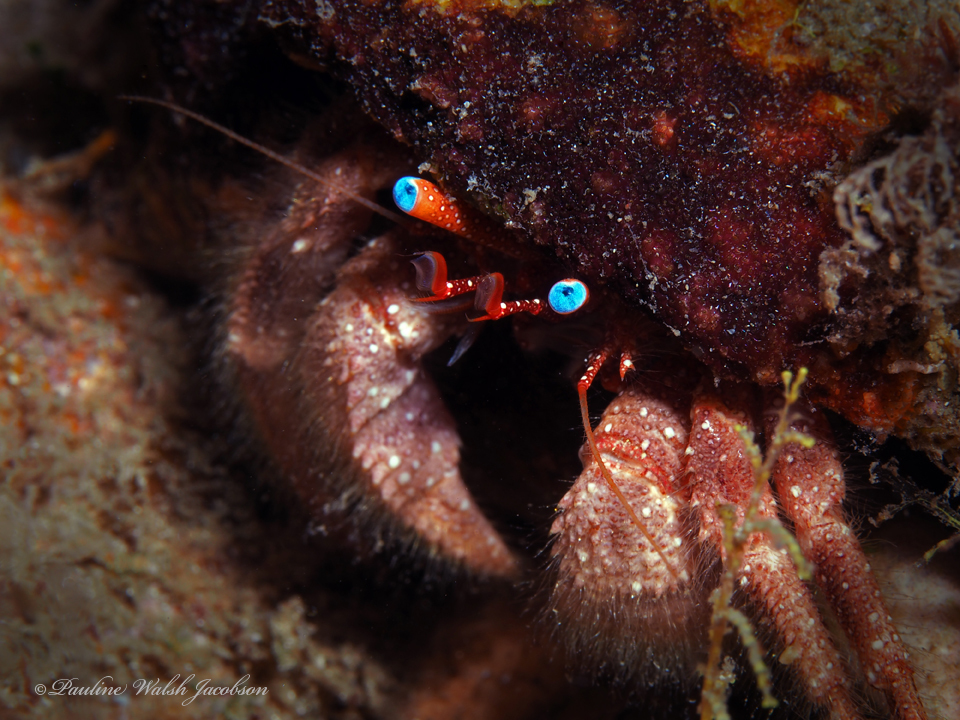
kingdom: Animalia
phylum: Arthropoda
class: Malacostraca
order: Decapoda
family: Diogenidae
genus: Paguristes
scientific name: Paguristes wassi
